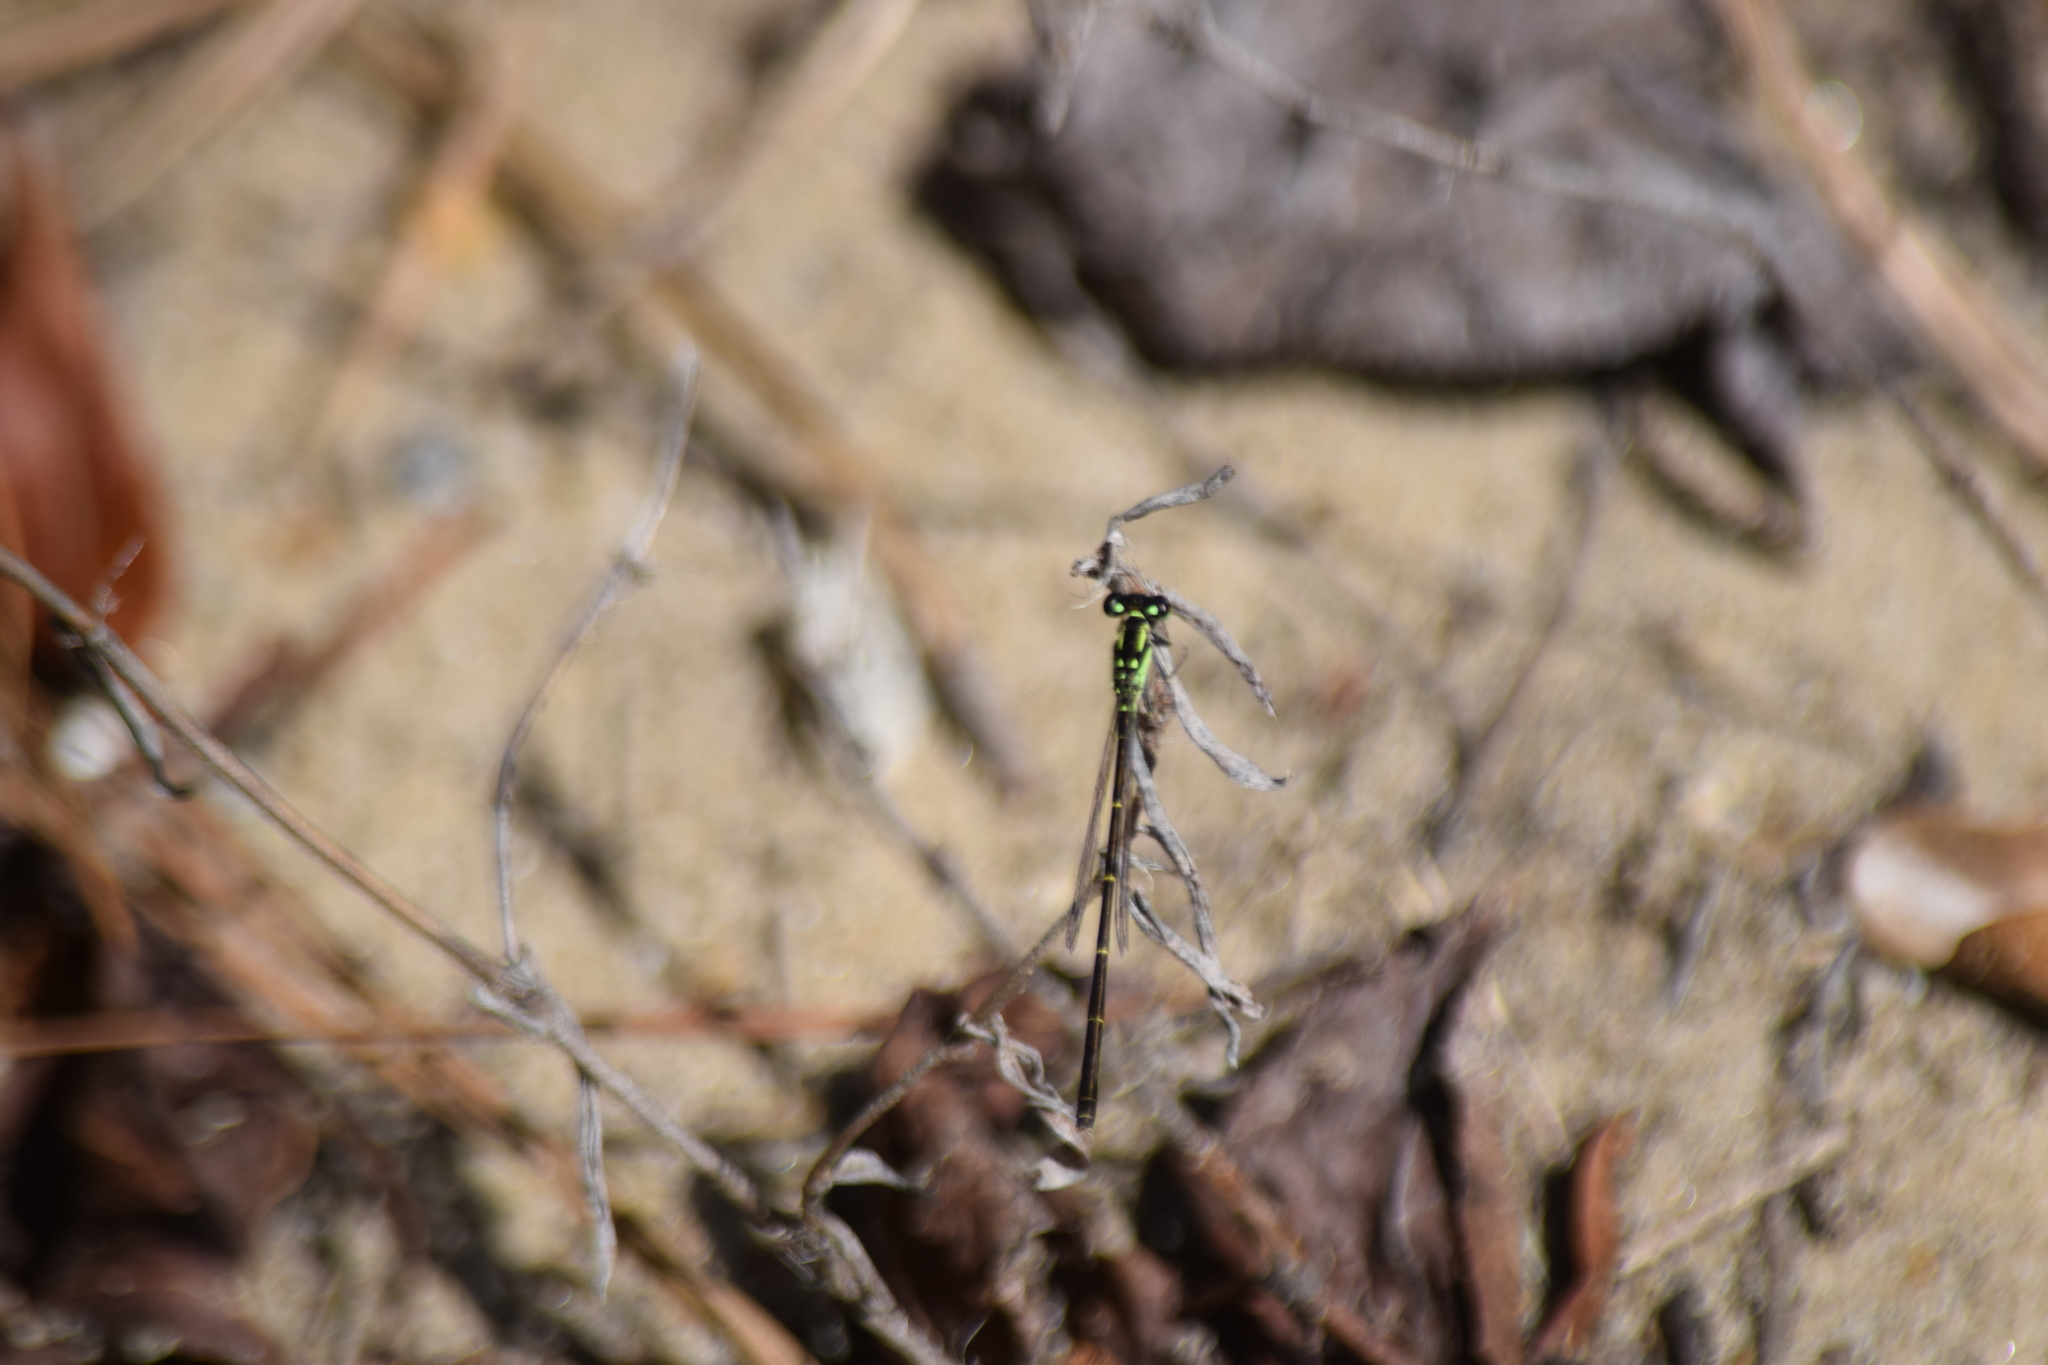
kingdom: Animalia
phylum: Arthropoda
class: Insecta
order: Odonata
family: Coenagrionidae
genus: Ischnura
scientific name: Ischnura posita
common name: Fragile forktail
